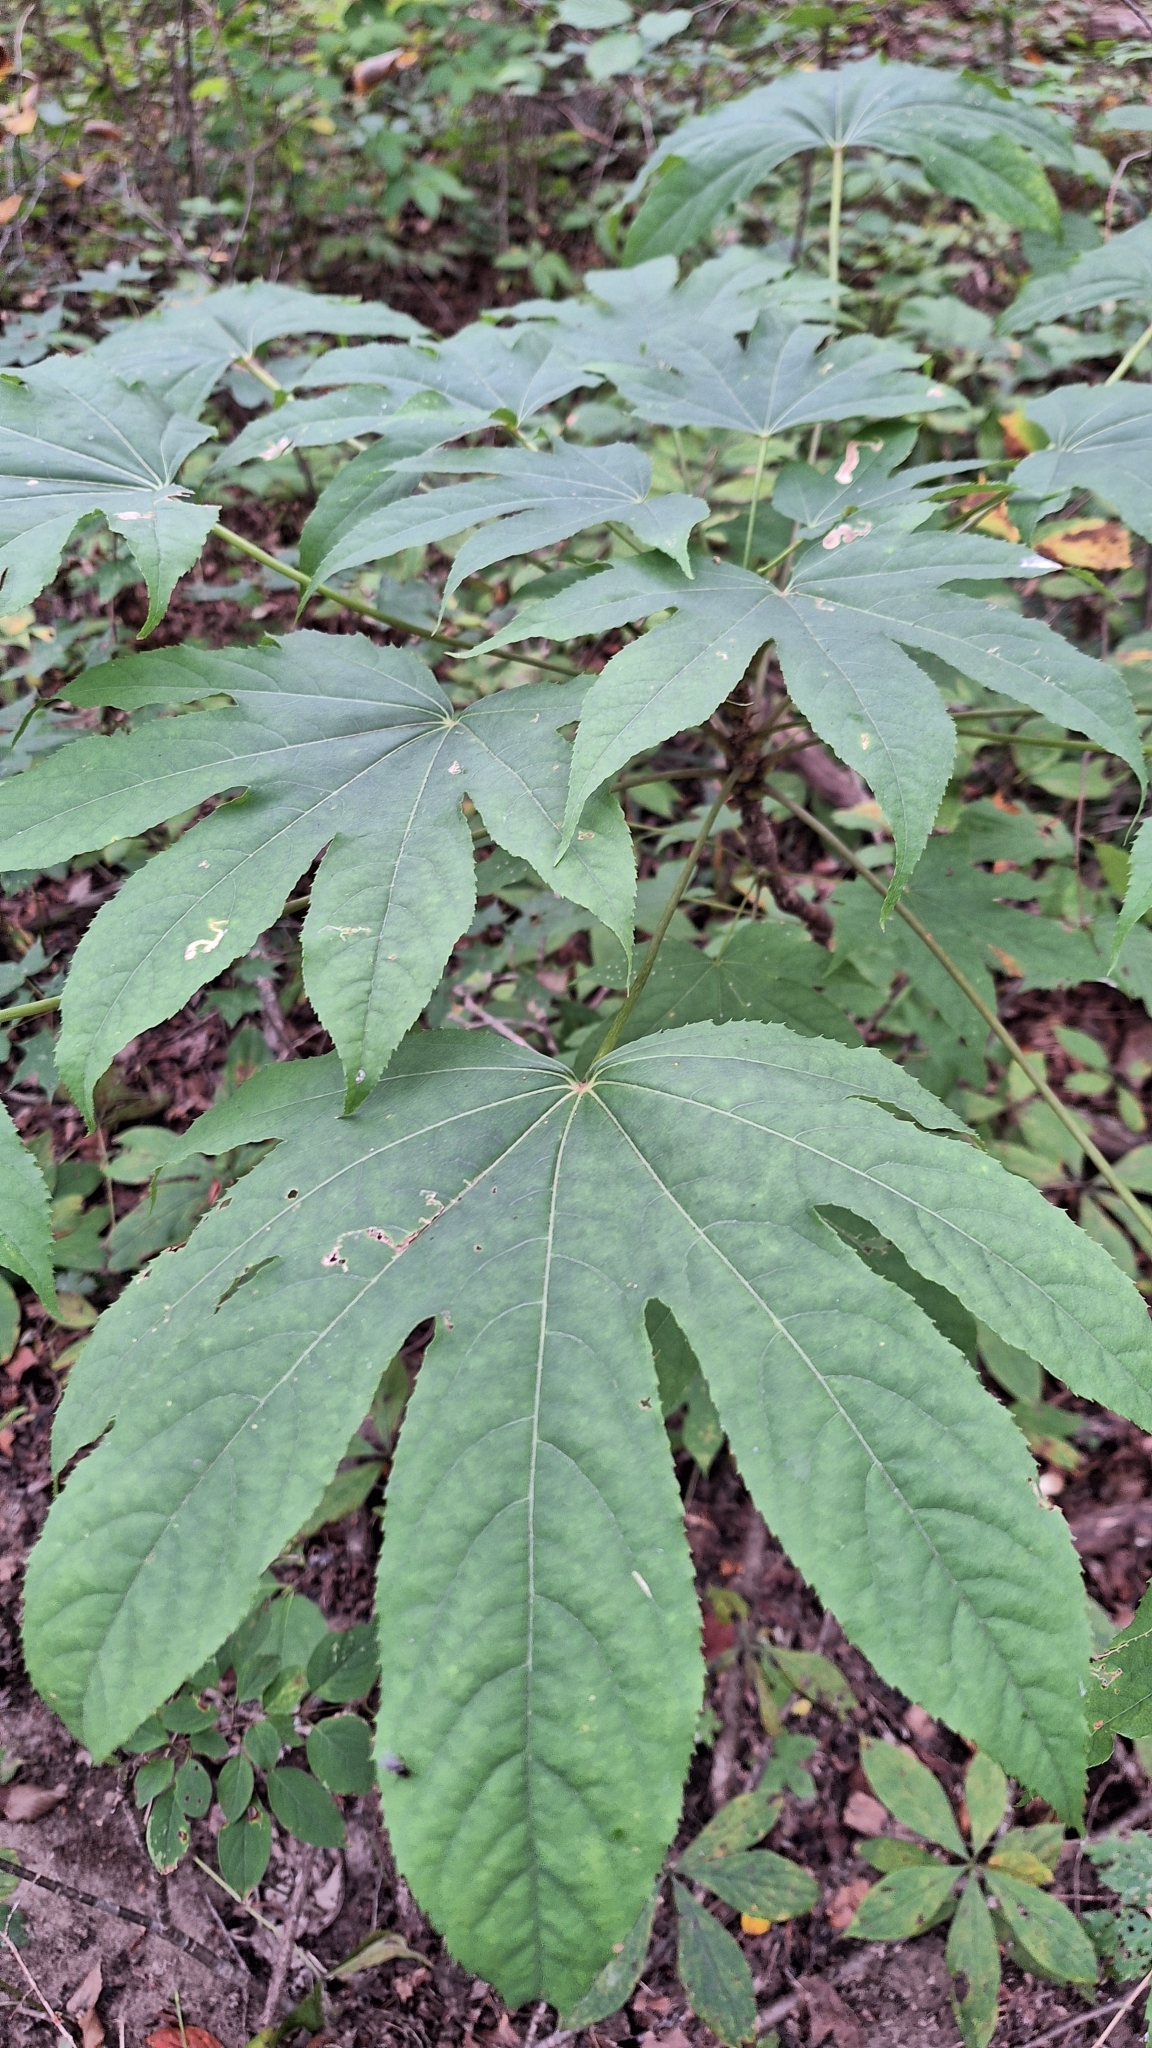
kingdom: Plantae
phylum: Tracheophyta
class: Magnoliopsida
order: Apiales
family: Araliaceae
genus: Kalopanax
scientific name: Kalopanax septemlobus
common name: Castor aralia
